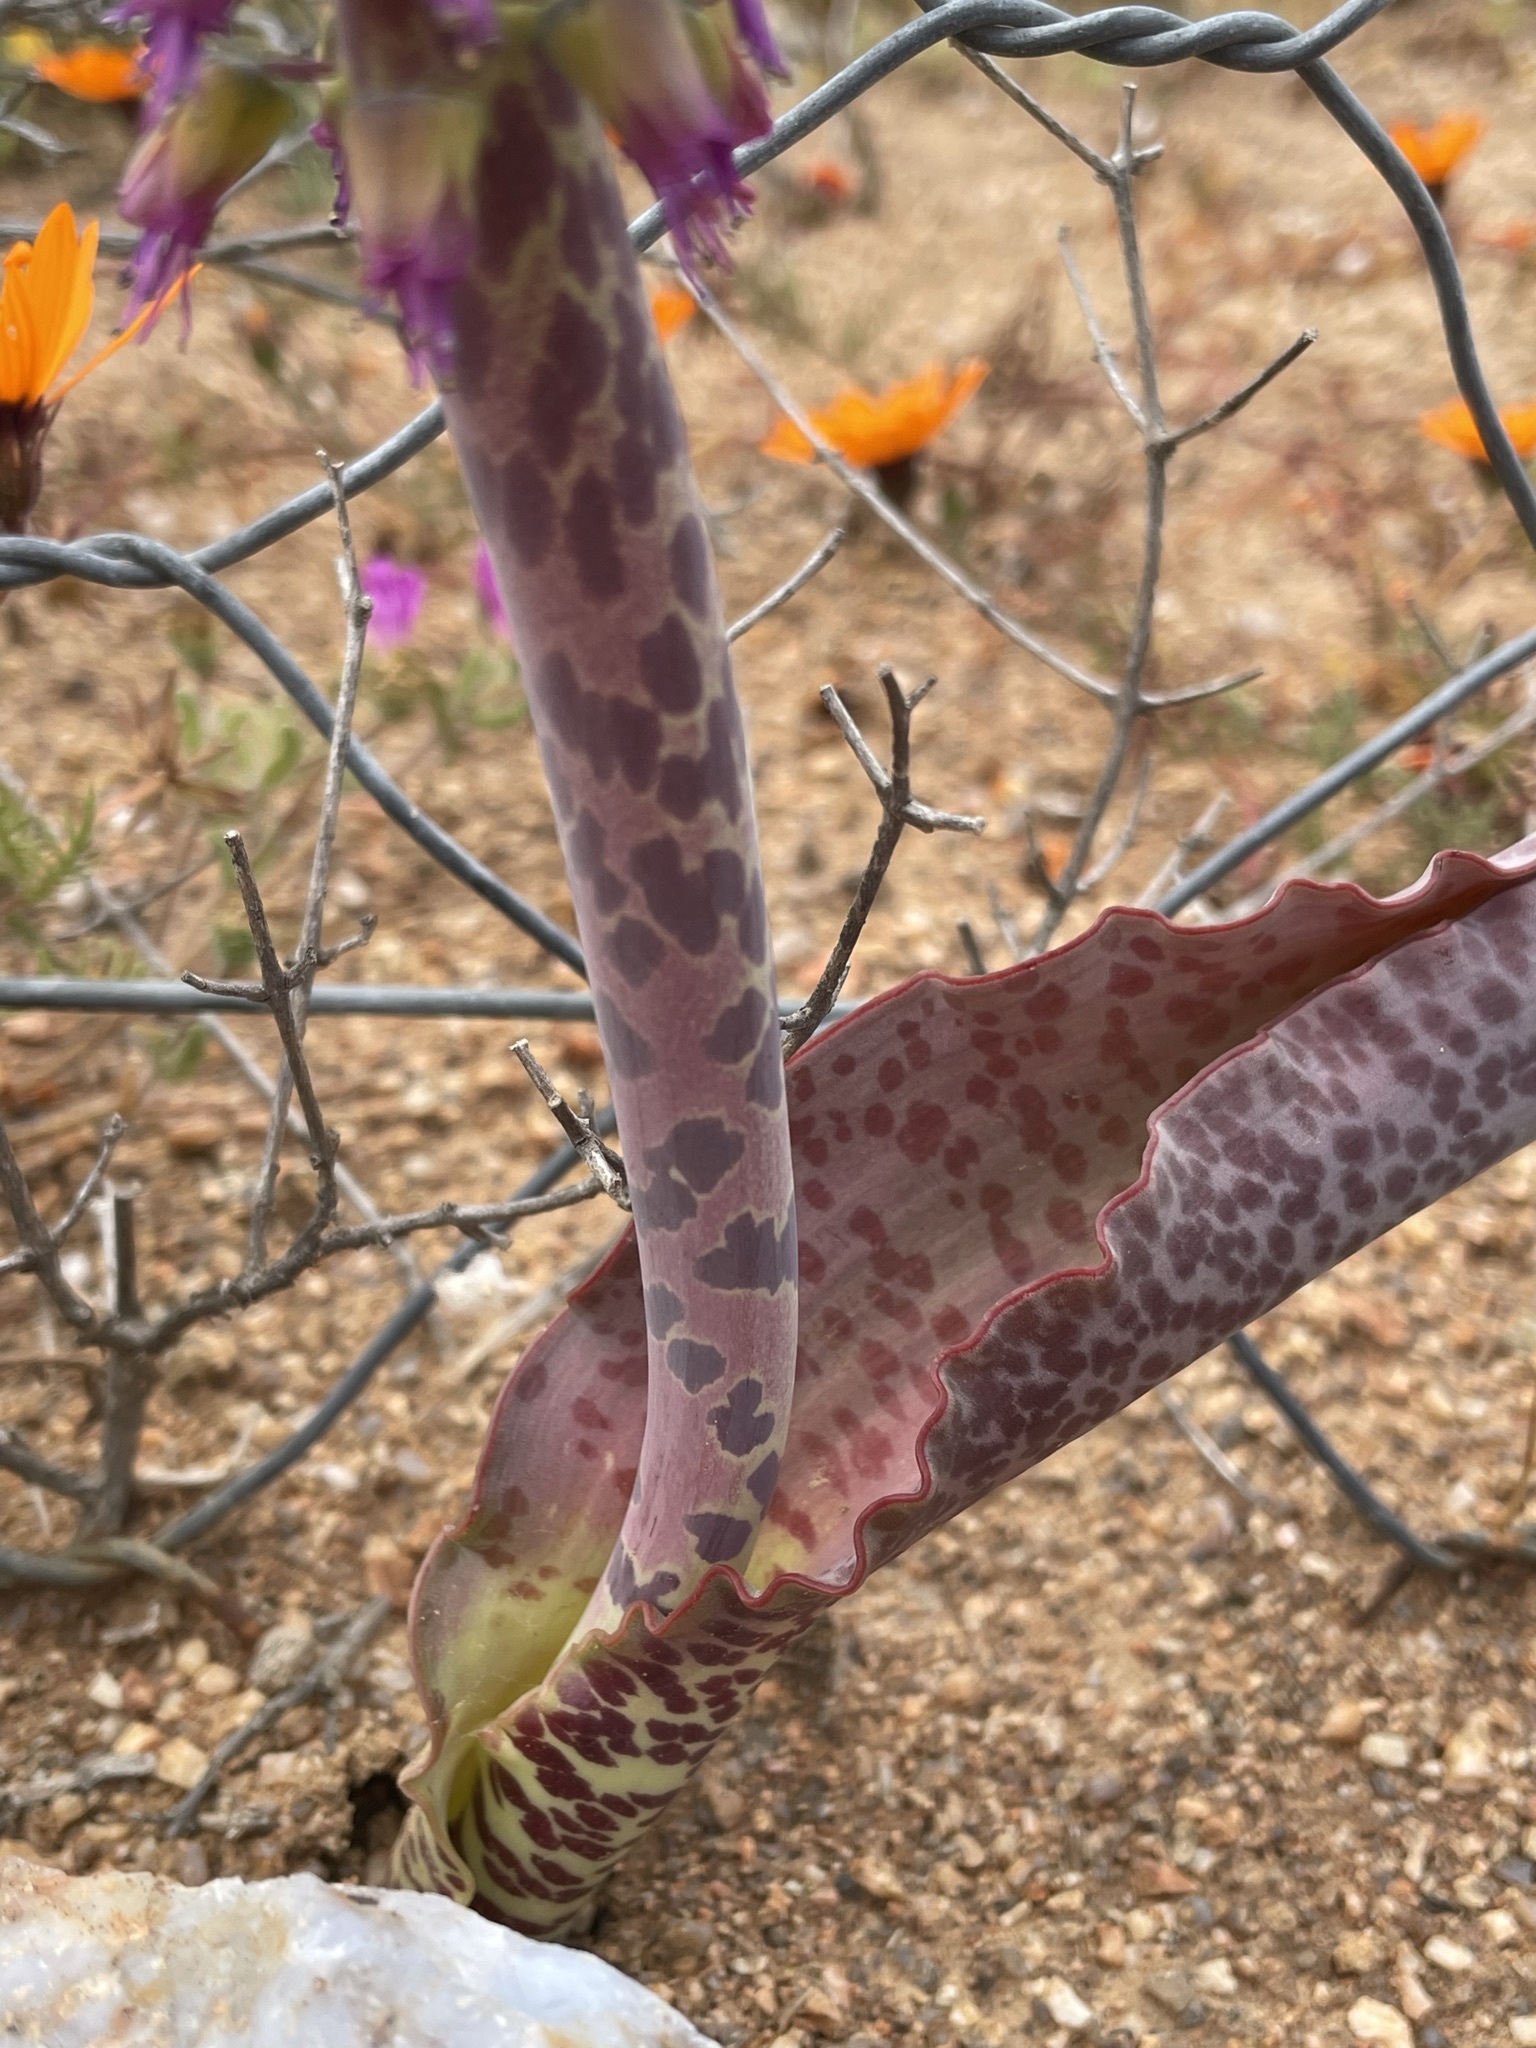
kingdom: Plantae
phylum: Tracheophyta
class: Liliopsida
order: Asparagales
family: Asparagaceae
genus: Lachenalia
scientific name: Lachenalia violacea
